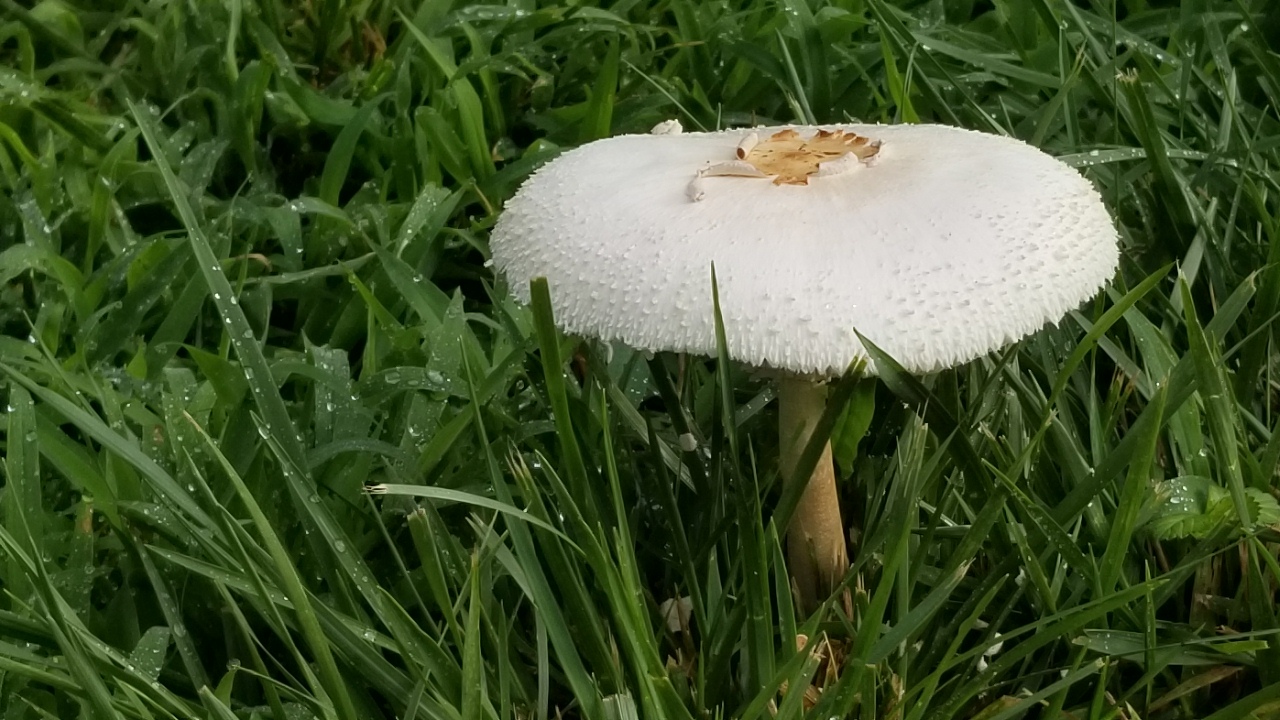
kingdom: Fungi
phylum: Basidiomycota
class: Agaricomycetes
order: Agaricales
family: Agaricaceae
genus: Chlorophyllum
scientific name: Chlorophyllum molybdites
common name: False parasol
